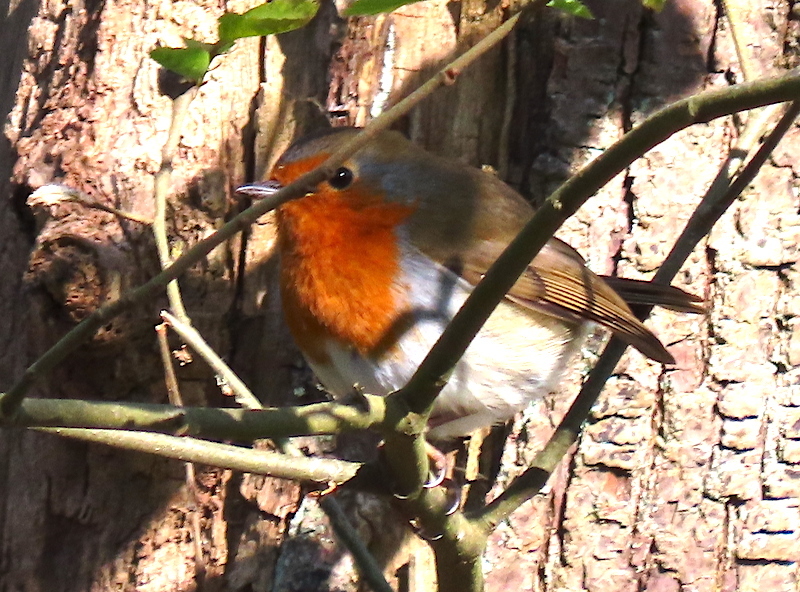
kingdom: Animalia
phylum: Chordata
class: Aves
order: Passeriformes
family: Muscicapidae
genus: Erithacus
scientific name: Erithacus rubecula
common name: European robin
